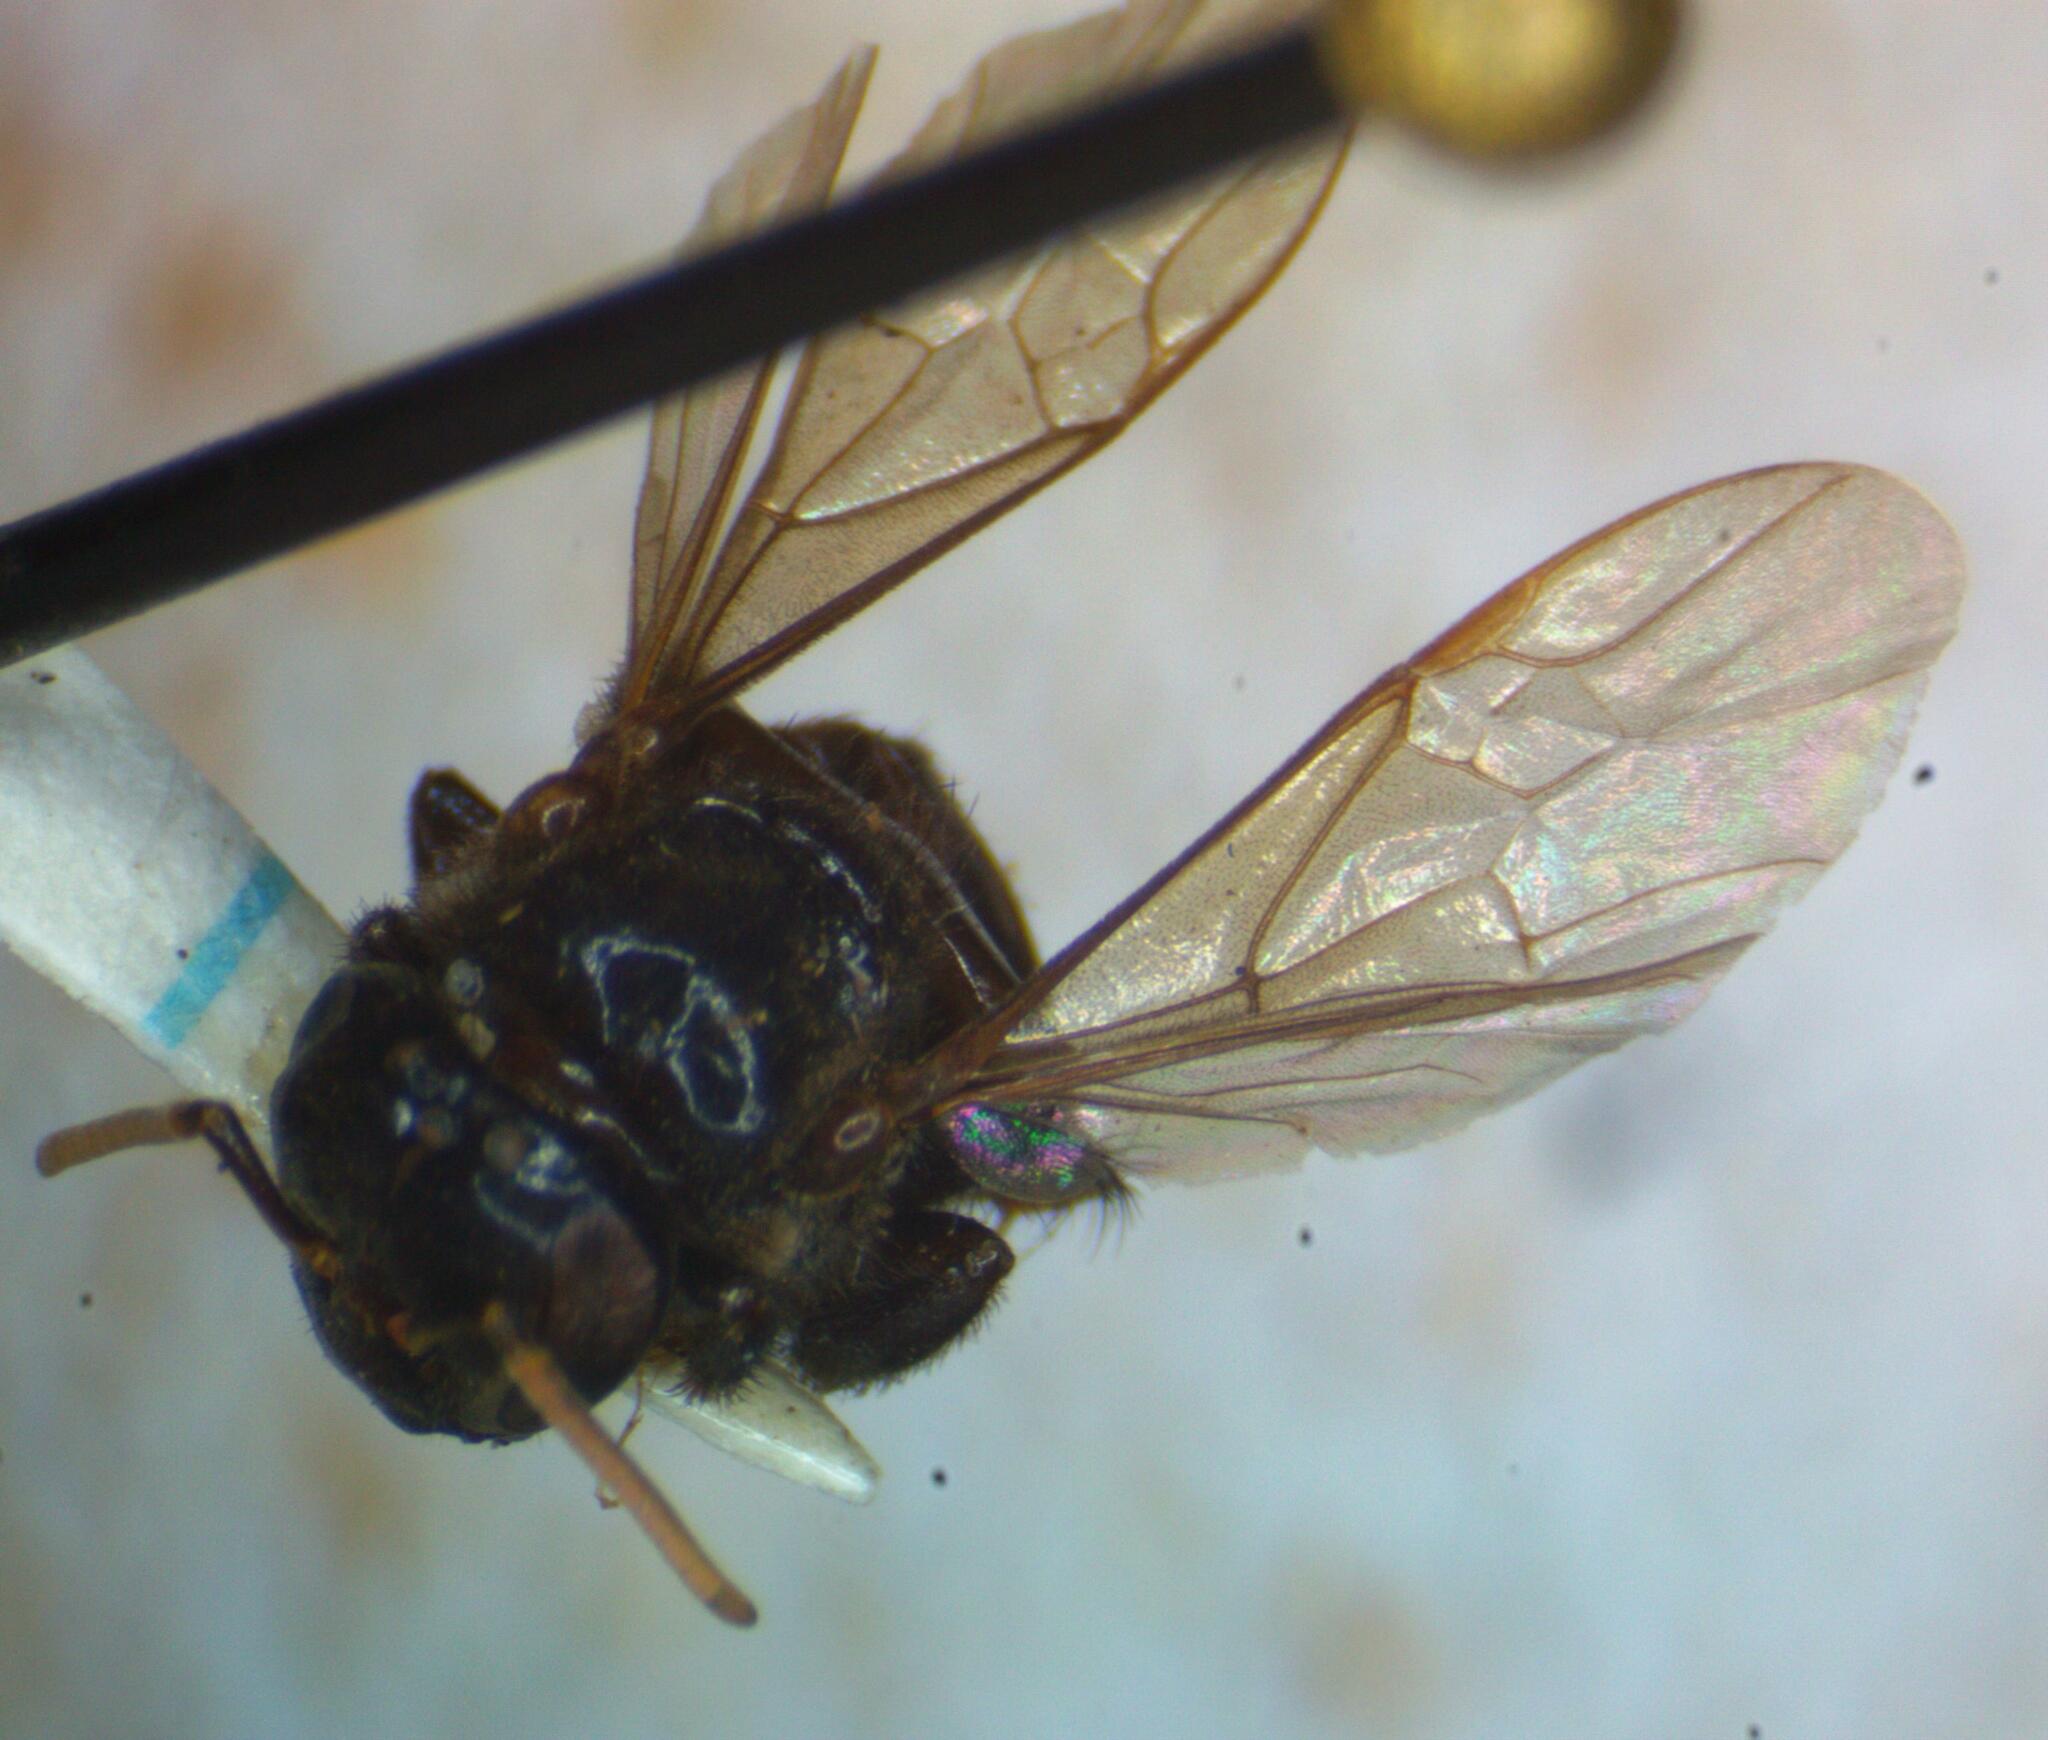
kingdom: Animalia
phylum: Arthropoda
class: Insecta
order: Hymenoptera
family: Apidae
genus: Partamona
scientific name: Partamona cupira
